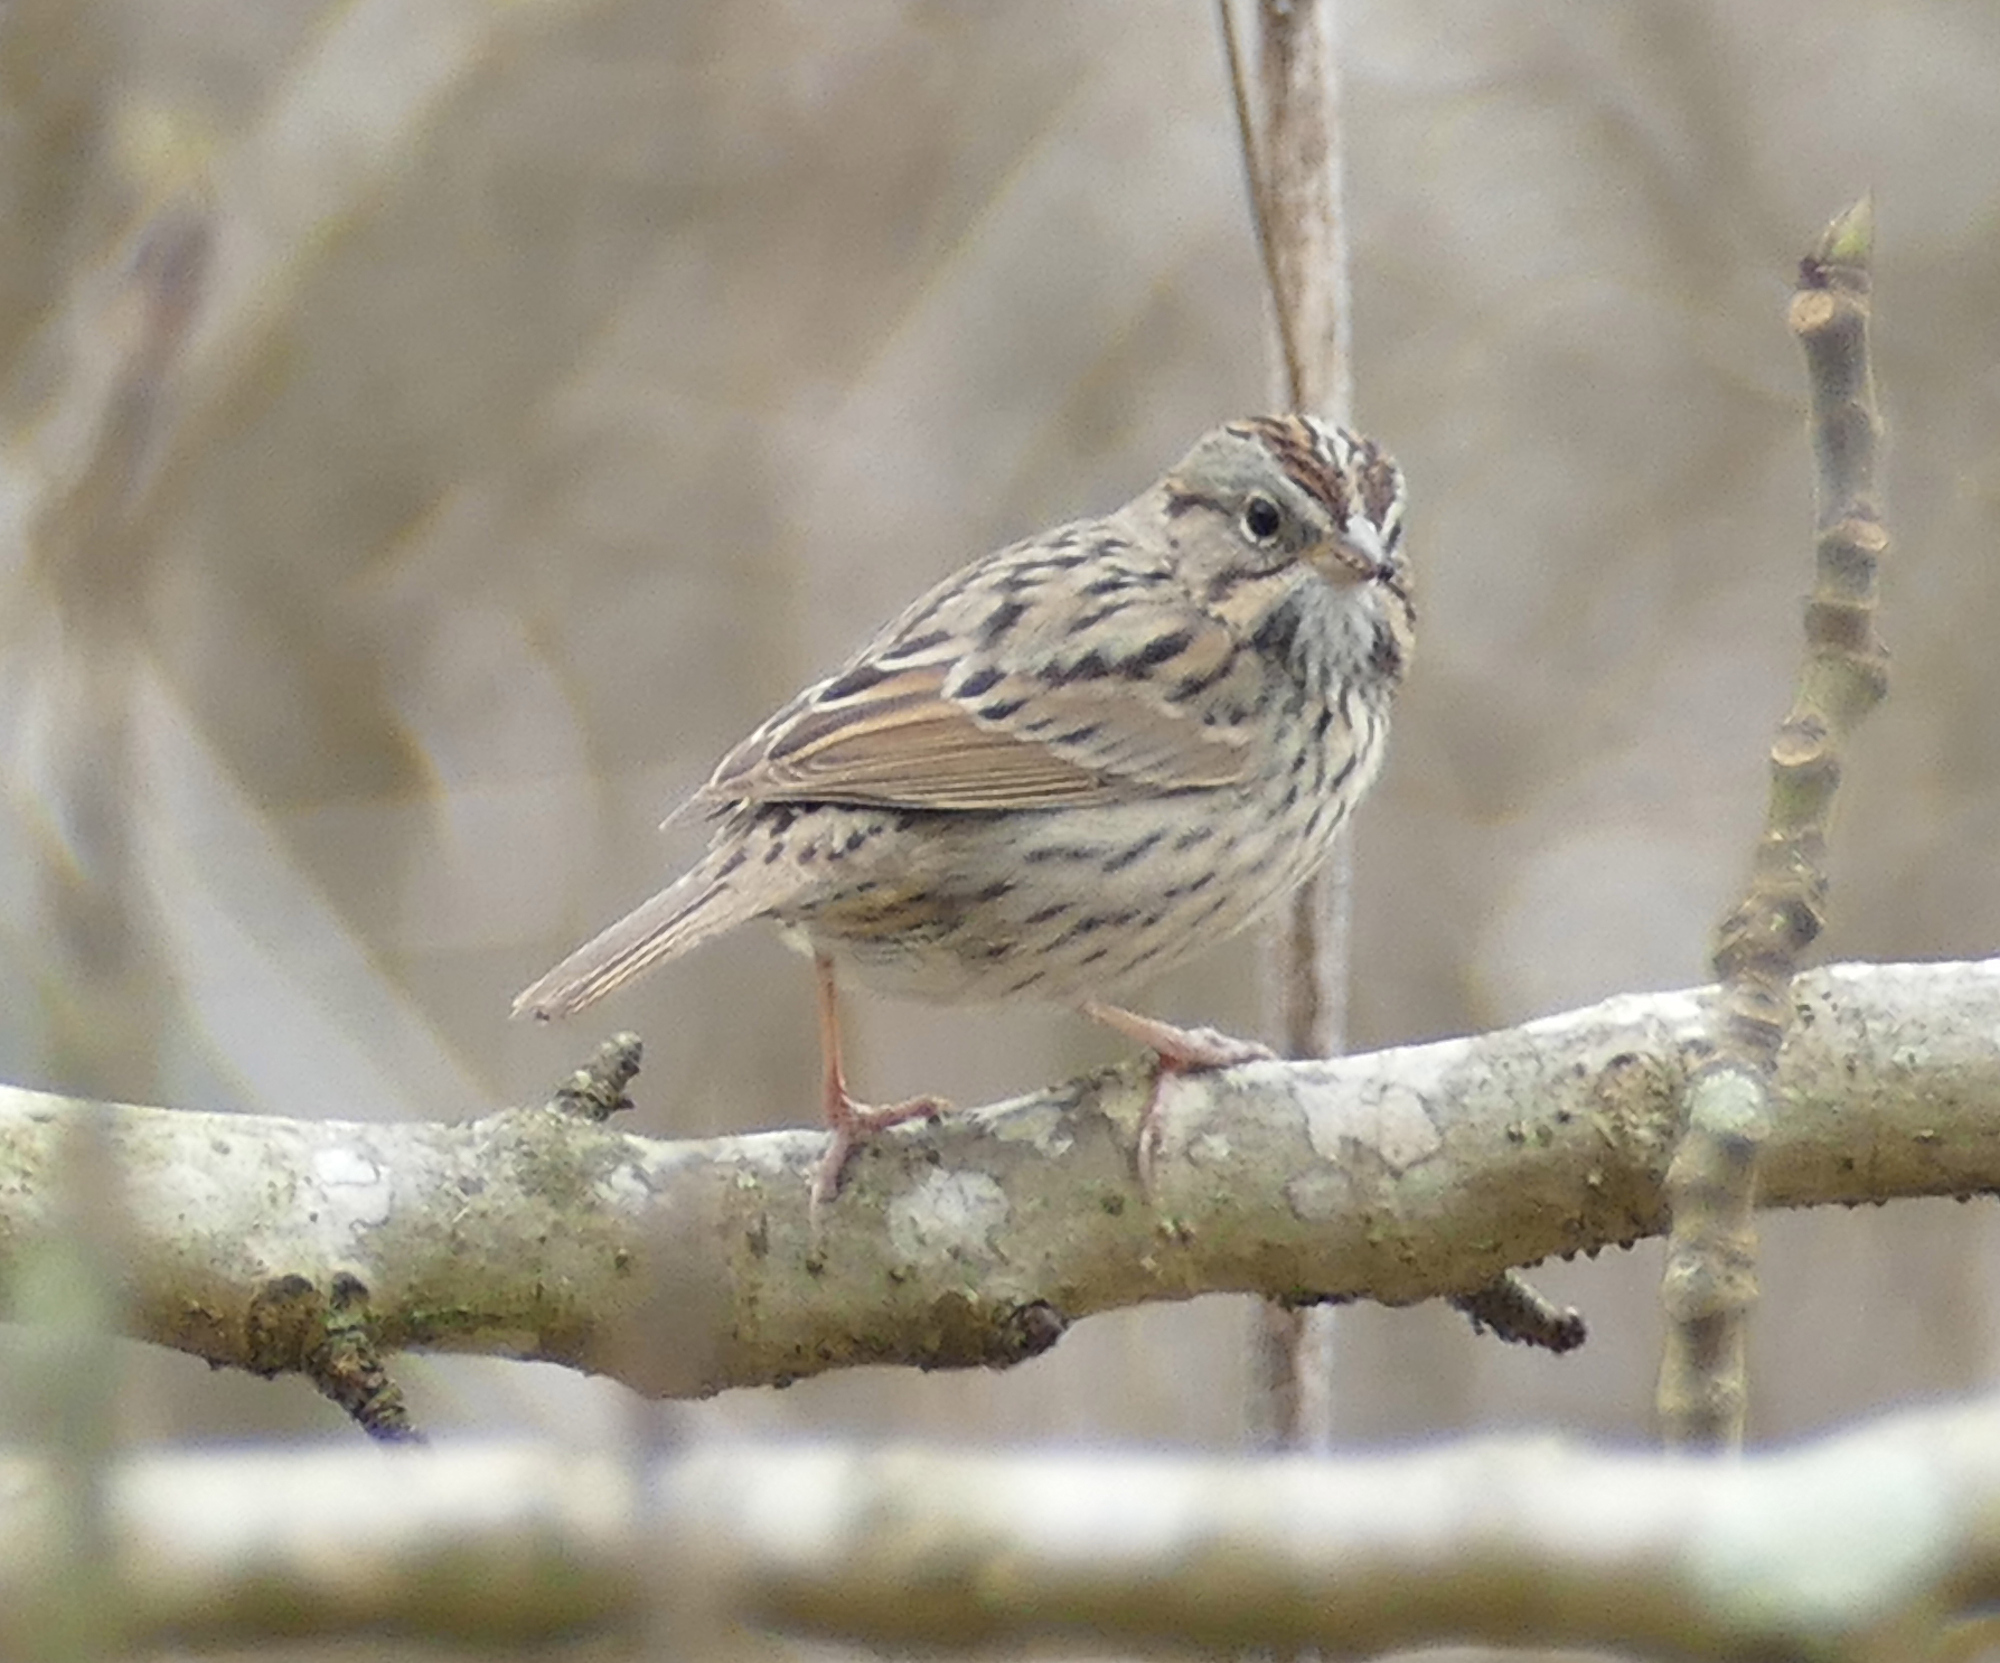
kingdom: Animalia
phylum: Chordata
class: Aves
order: Passeriformes
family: Passerellidae
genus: Melospiza
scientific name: Melospiza lincolnii
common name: Lincoln's sparrow
